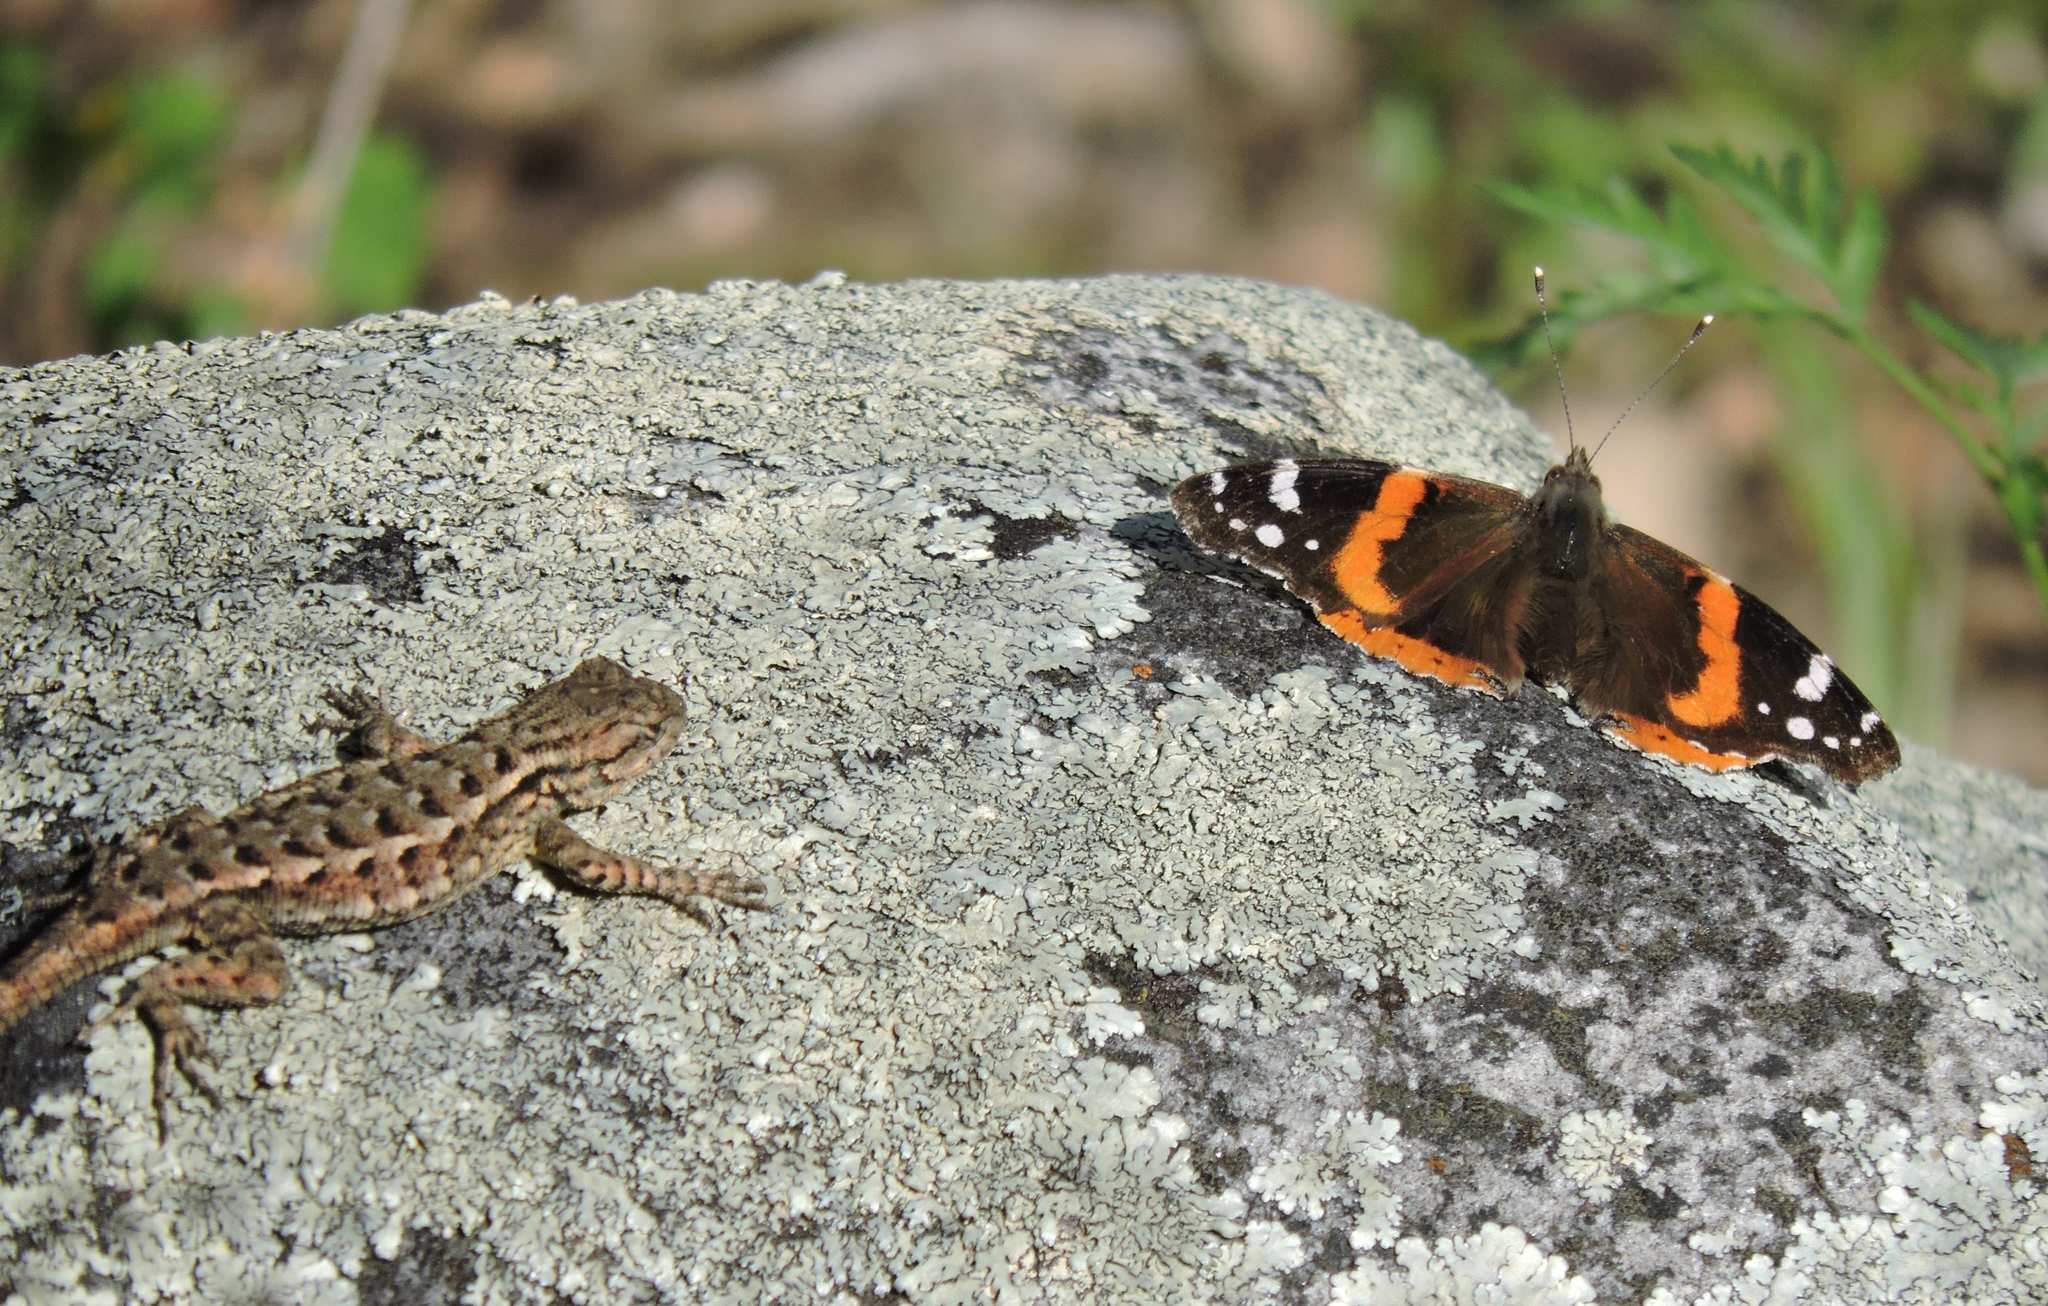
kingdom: Animalia
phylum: Arthropoda
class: Insecta
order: Lepidoptera
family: Nymphalidae
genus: Vanessa
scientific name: Vanessa atalanta
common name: Red admiral
